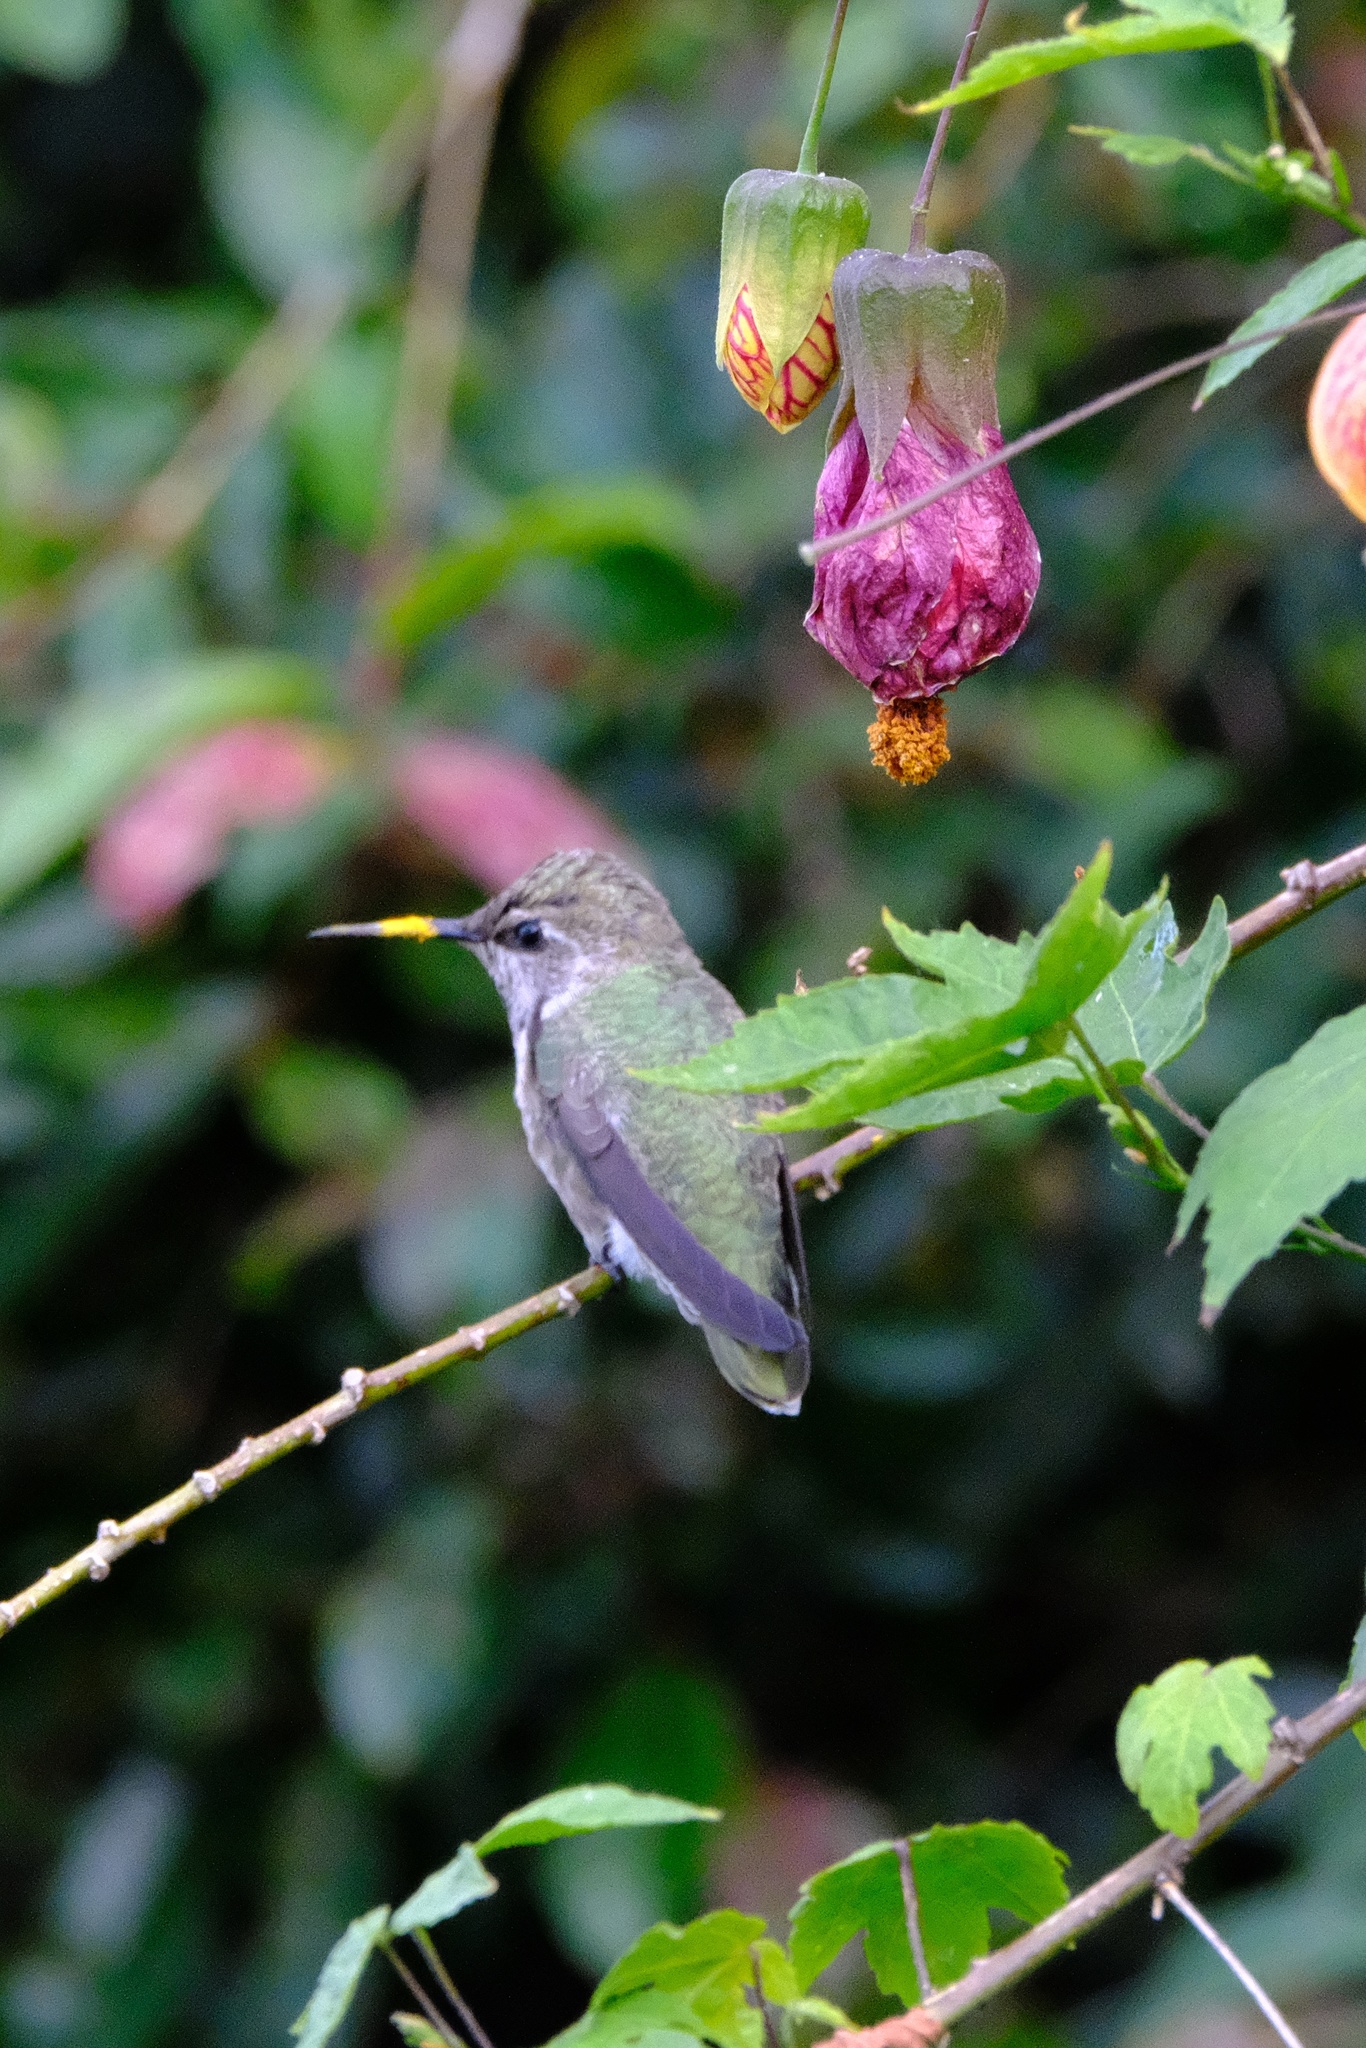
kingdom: Animalia
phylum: Chordata
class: Aves
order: Apodiformes
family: Trochilidae
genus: Calypte
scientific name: Calypte anna
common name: Anna's hummingbird
